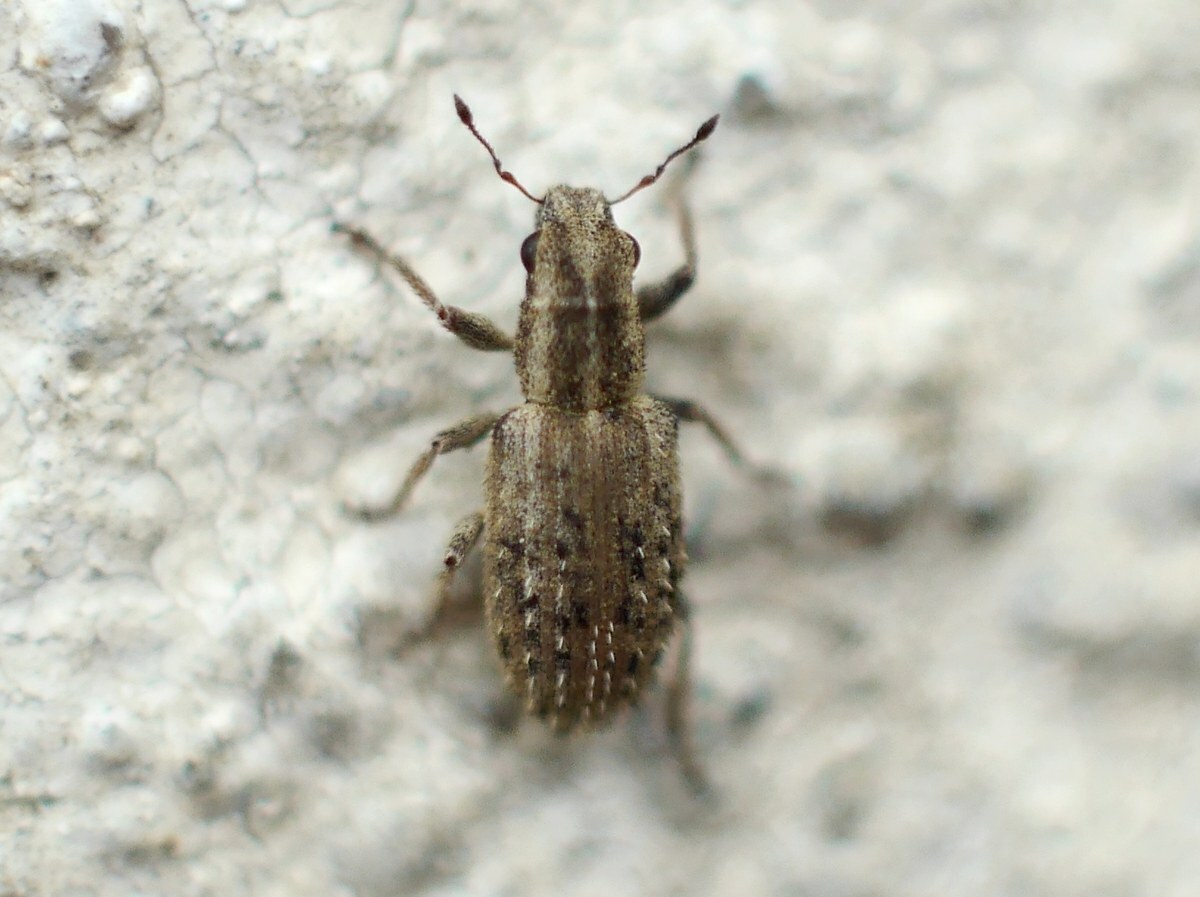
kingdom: Animalia
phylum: Arthropoda
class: Insecta
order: Coleoptera
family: Curculionidae
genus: Sitona
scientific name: Sitona macularius
